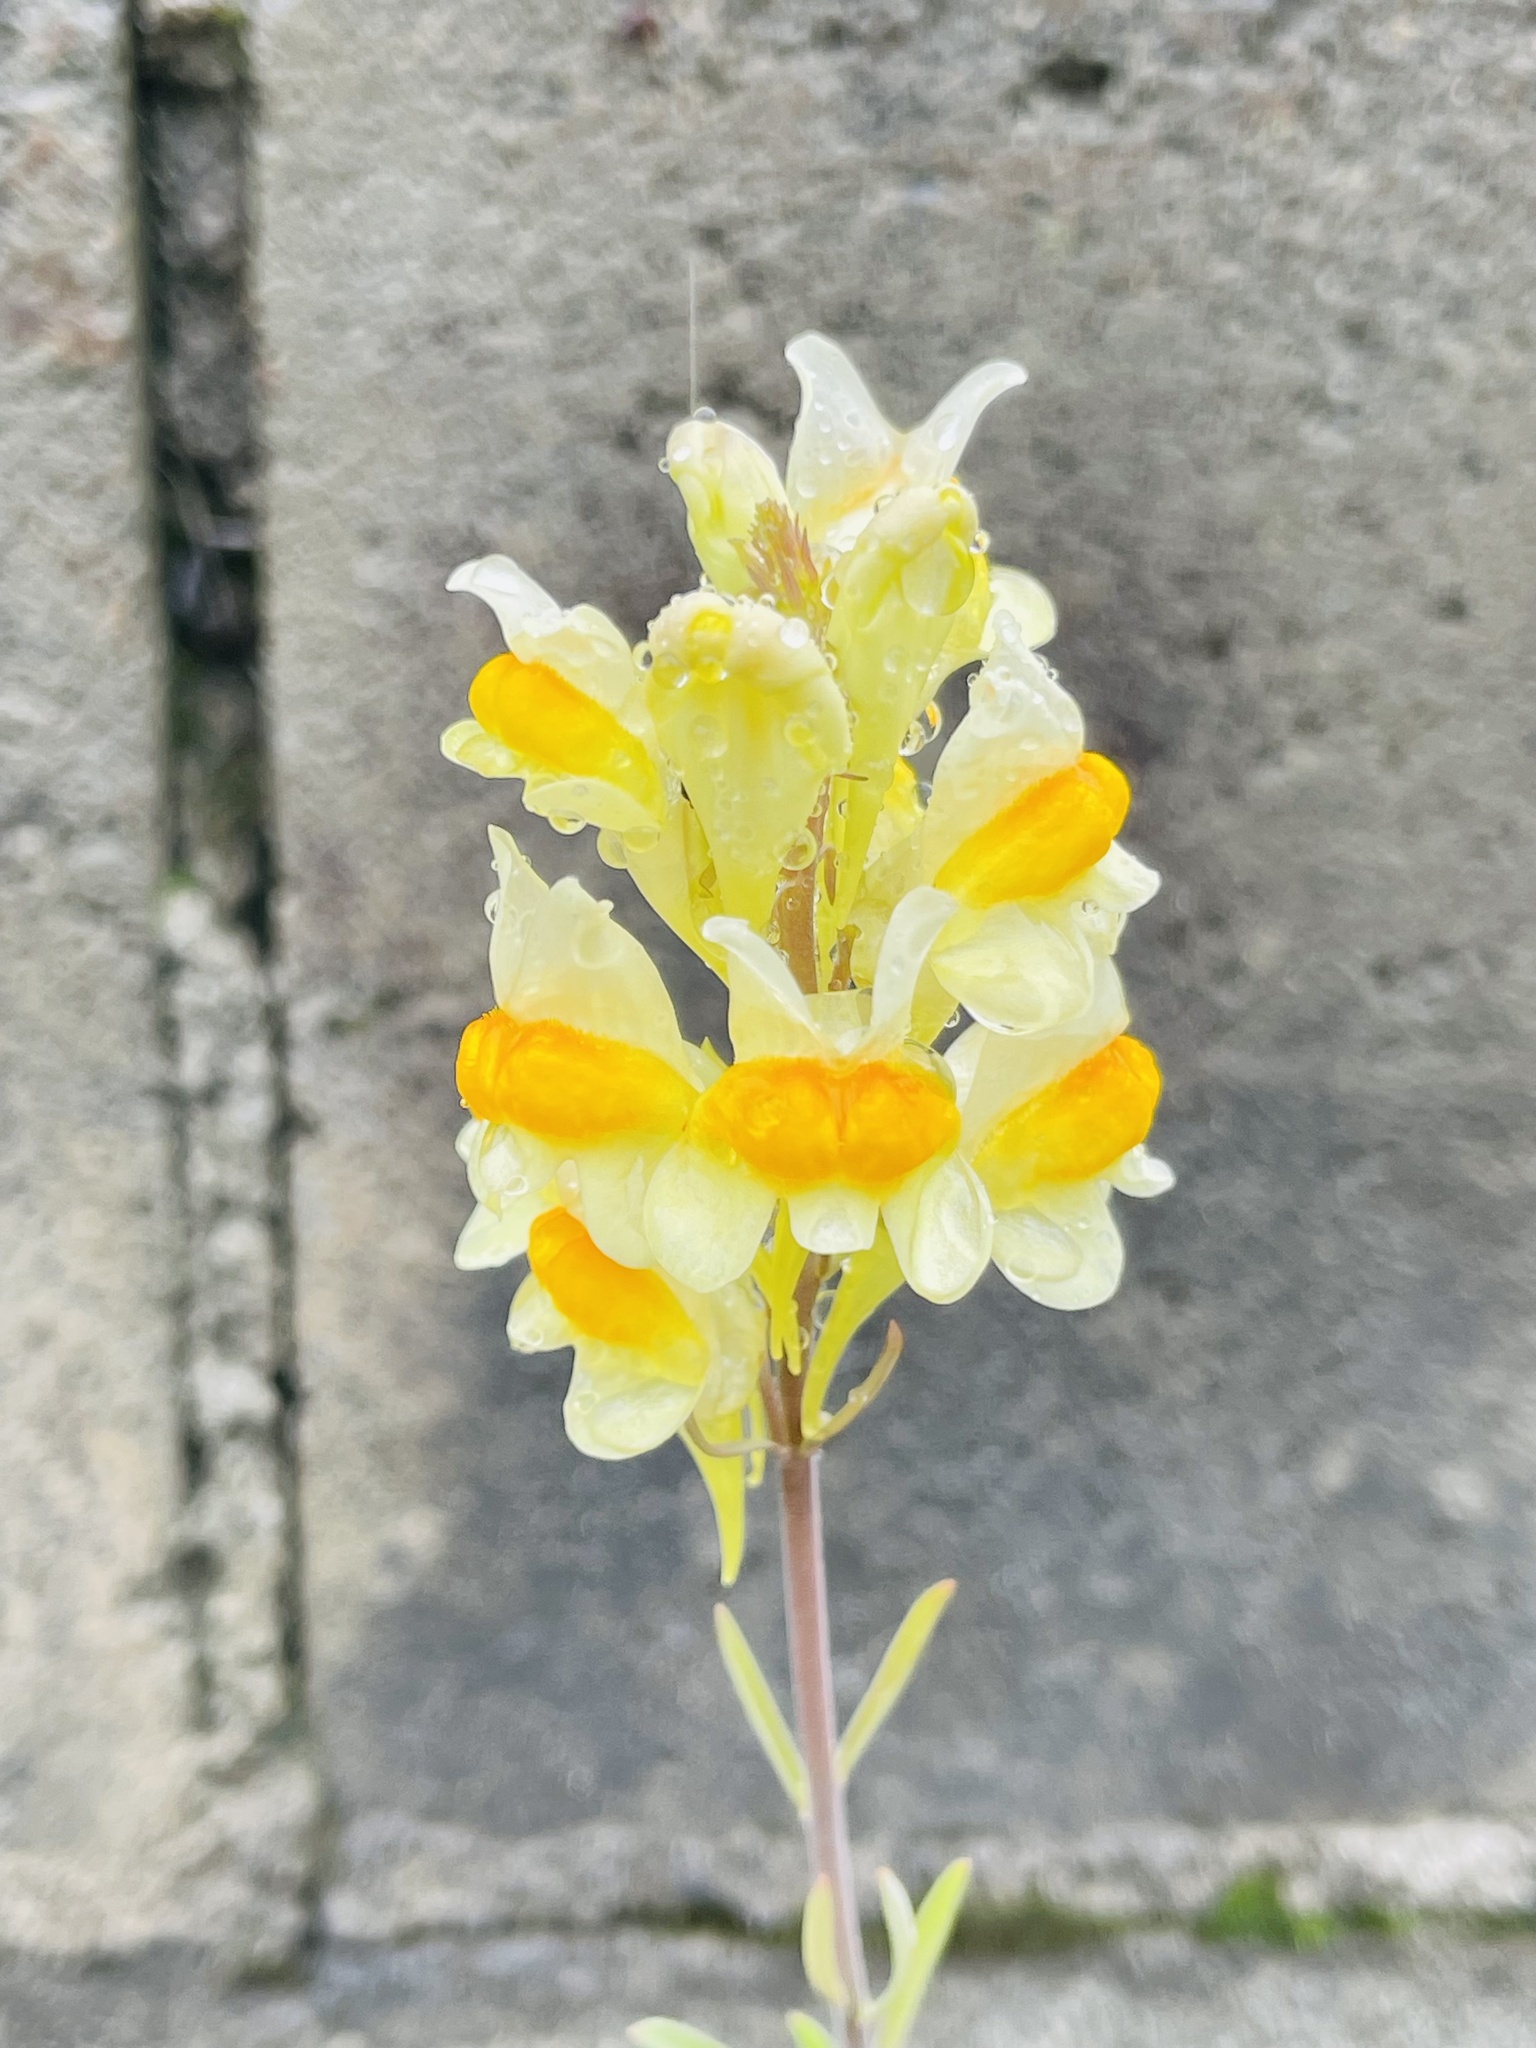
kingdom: Plantae
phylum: Tracheophyta
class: Magnoliopsida
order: Lamiales
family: Plantaginaceae
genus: Linaria
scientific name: Linaria vulgaris
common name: Butter and eggs
